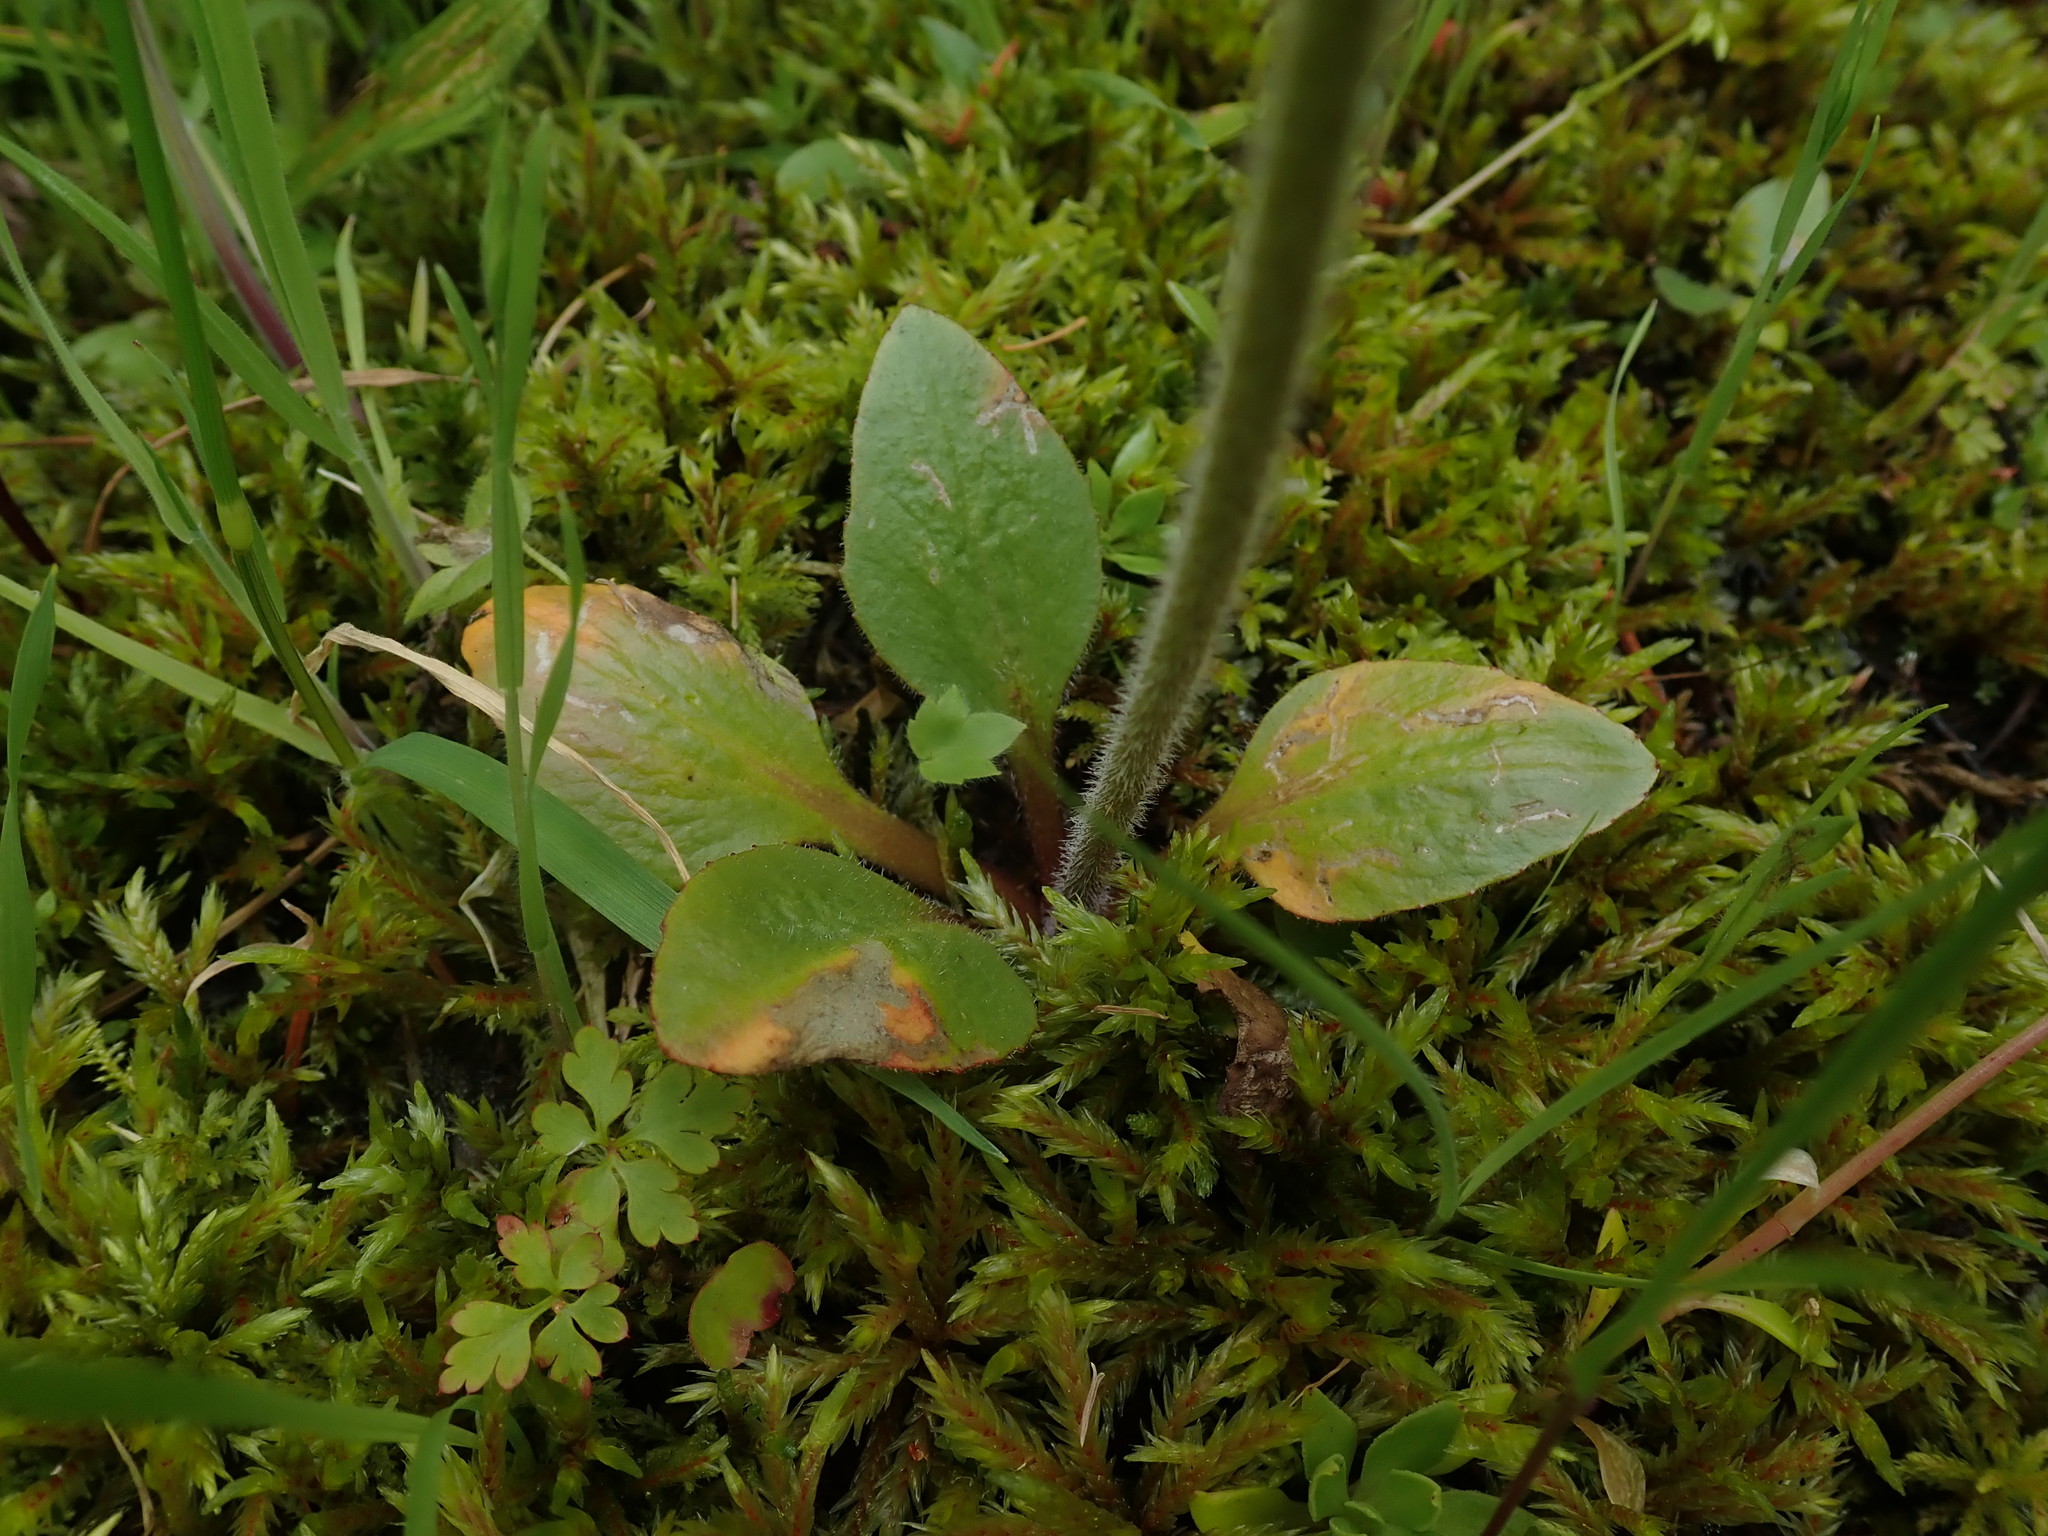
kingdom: Plantae
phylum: Tracheophyta
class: Magnoliopsida
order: Saxifragales
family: Saxifragaceae
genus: Micranthes
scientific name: Micranthes integrifolia
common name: Wholeleaf saxifrage
